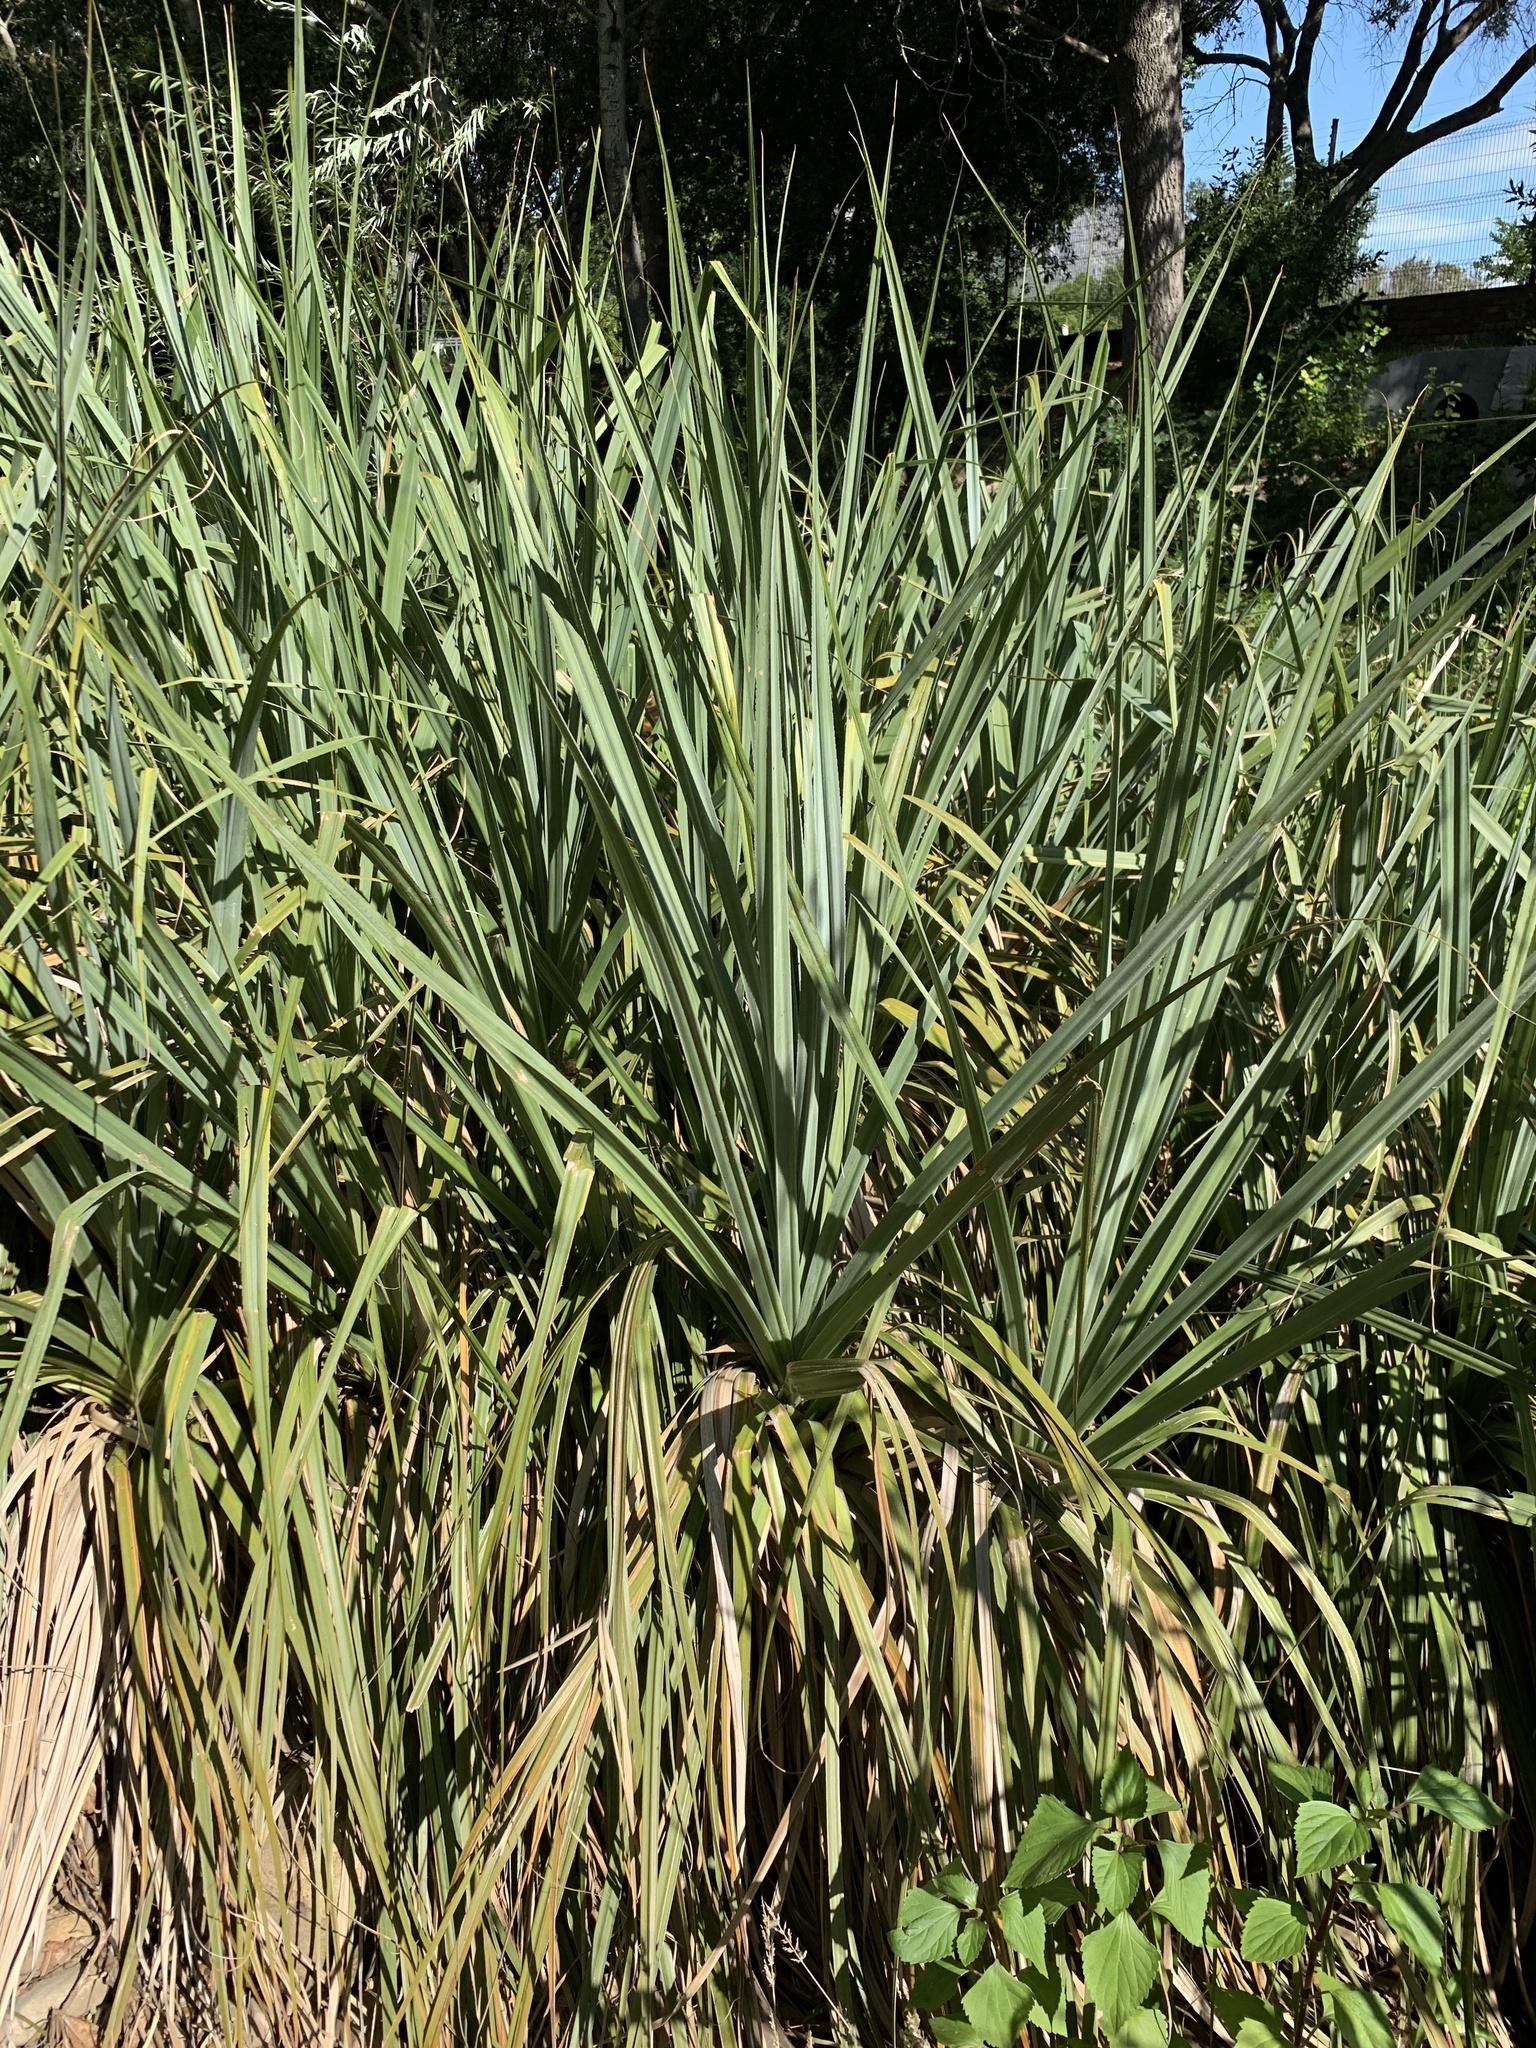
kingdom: Plantae
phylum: Tracheophyta
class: Liliopsida
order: Poales
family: Thurniaceae
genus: Prionium
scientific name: Prionium serratum
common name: Palmiet
